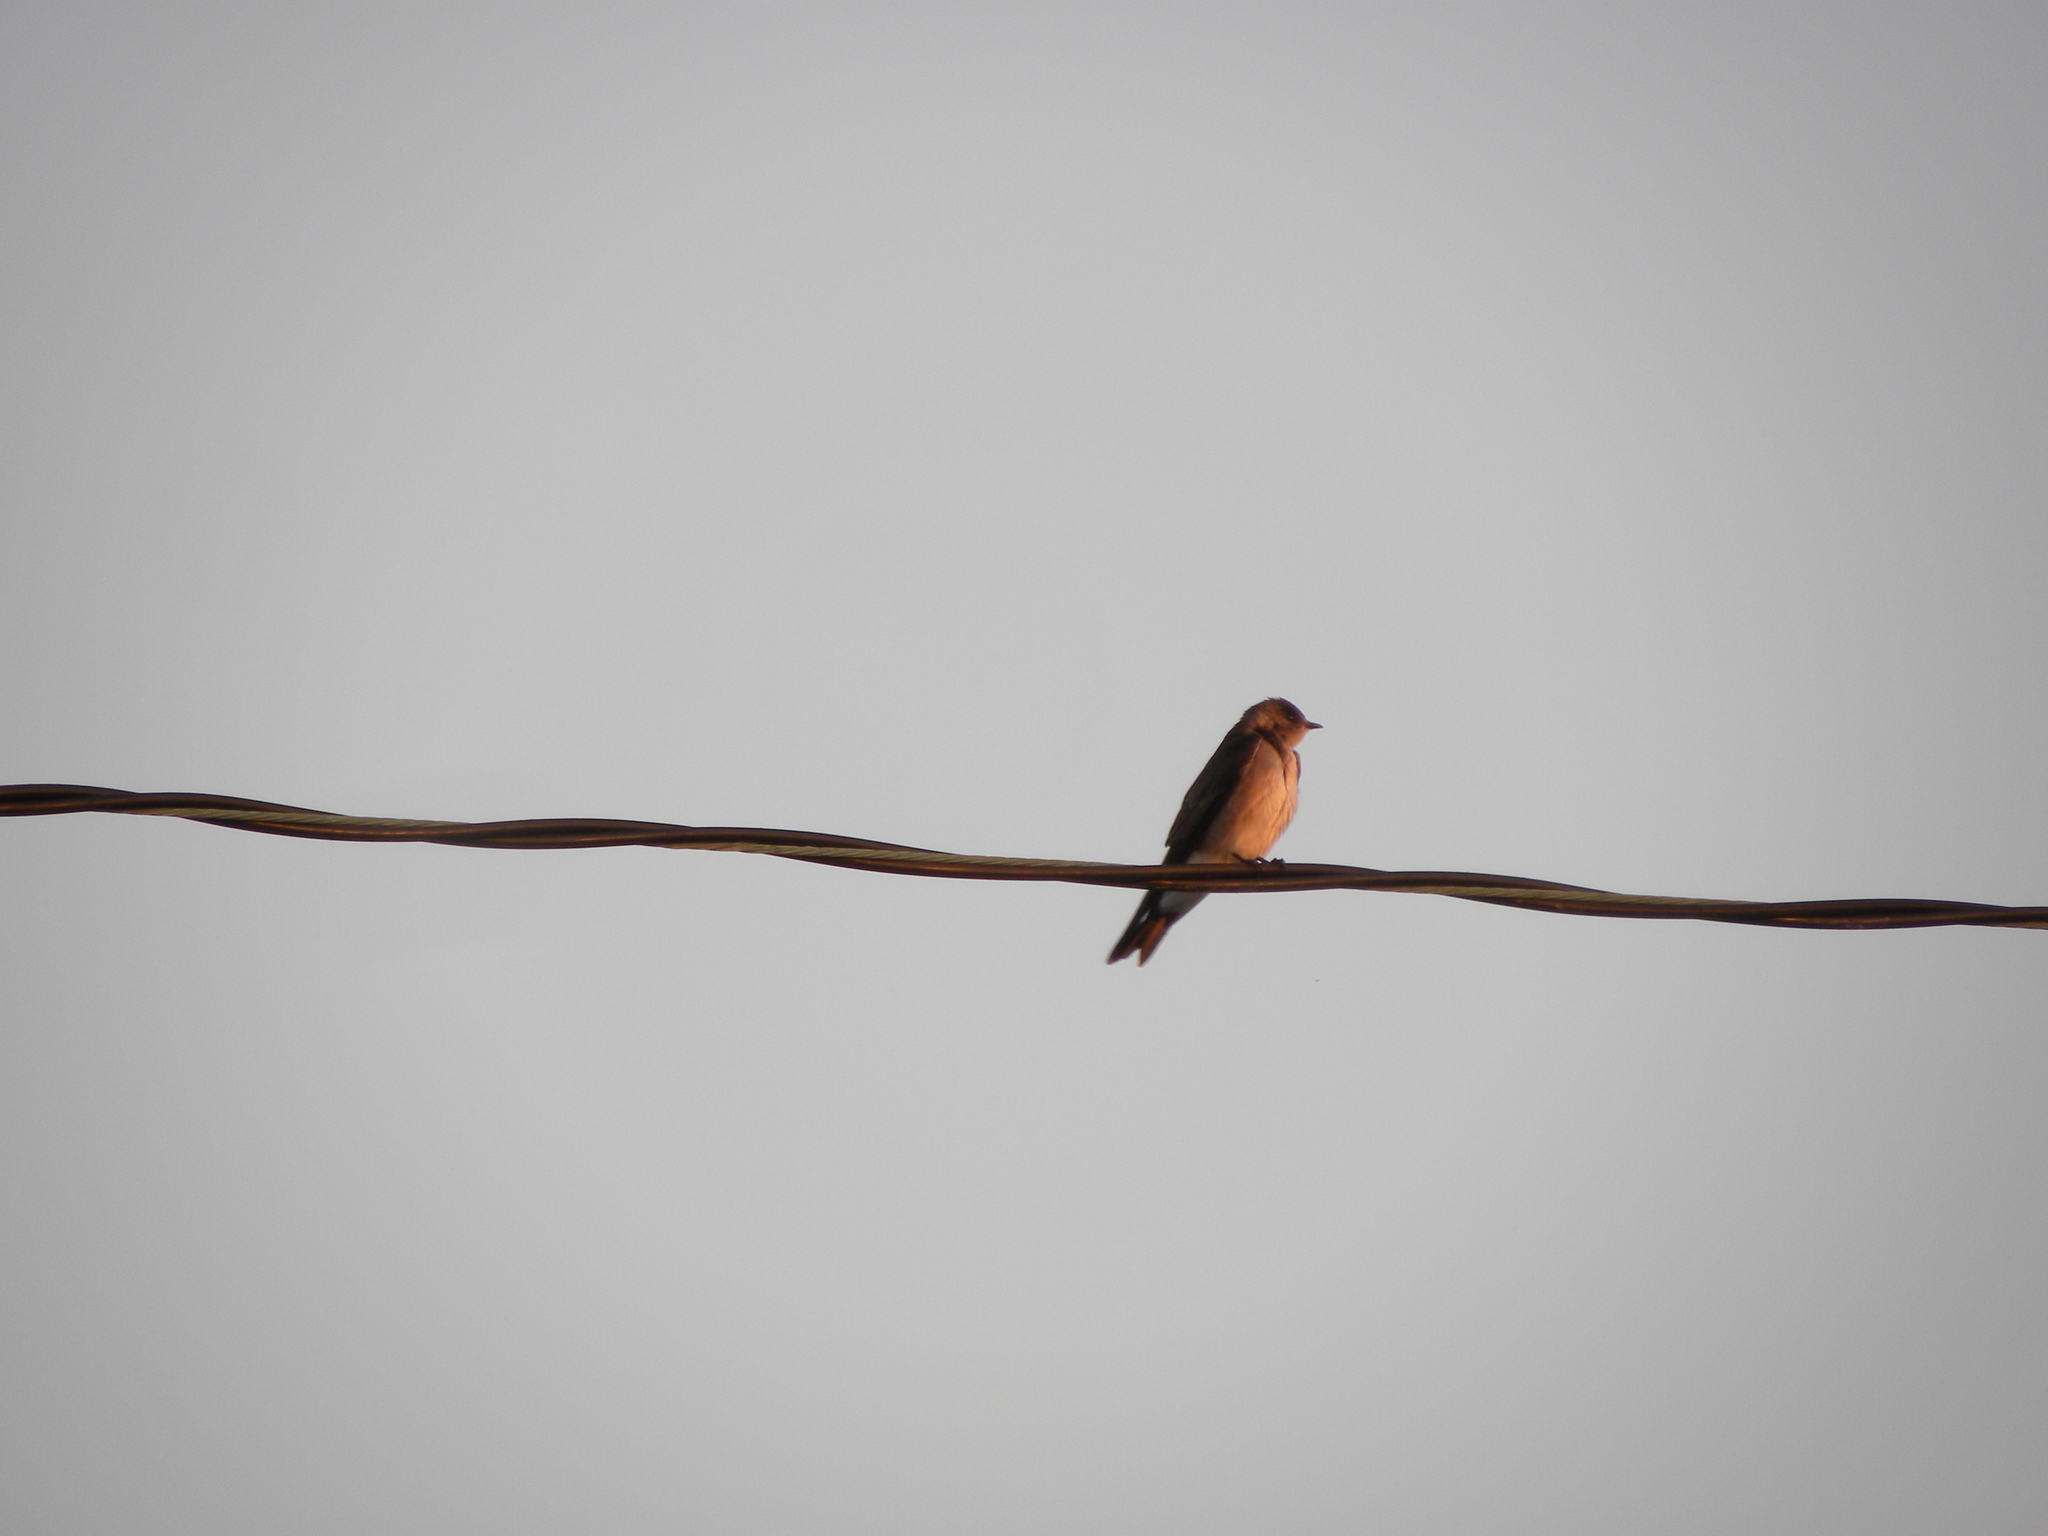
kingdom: Animalia
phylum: Chordata
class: Aves
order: Passeriformes
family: Hirundinidae
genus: Stelgidopteryx
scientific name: Stelgidopteryx serripennis
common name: Northern rough-winged swallow
